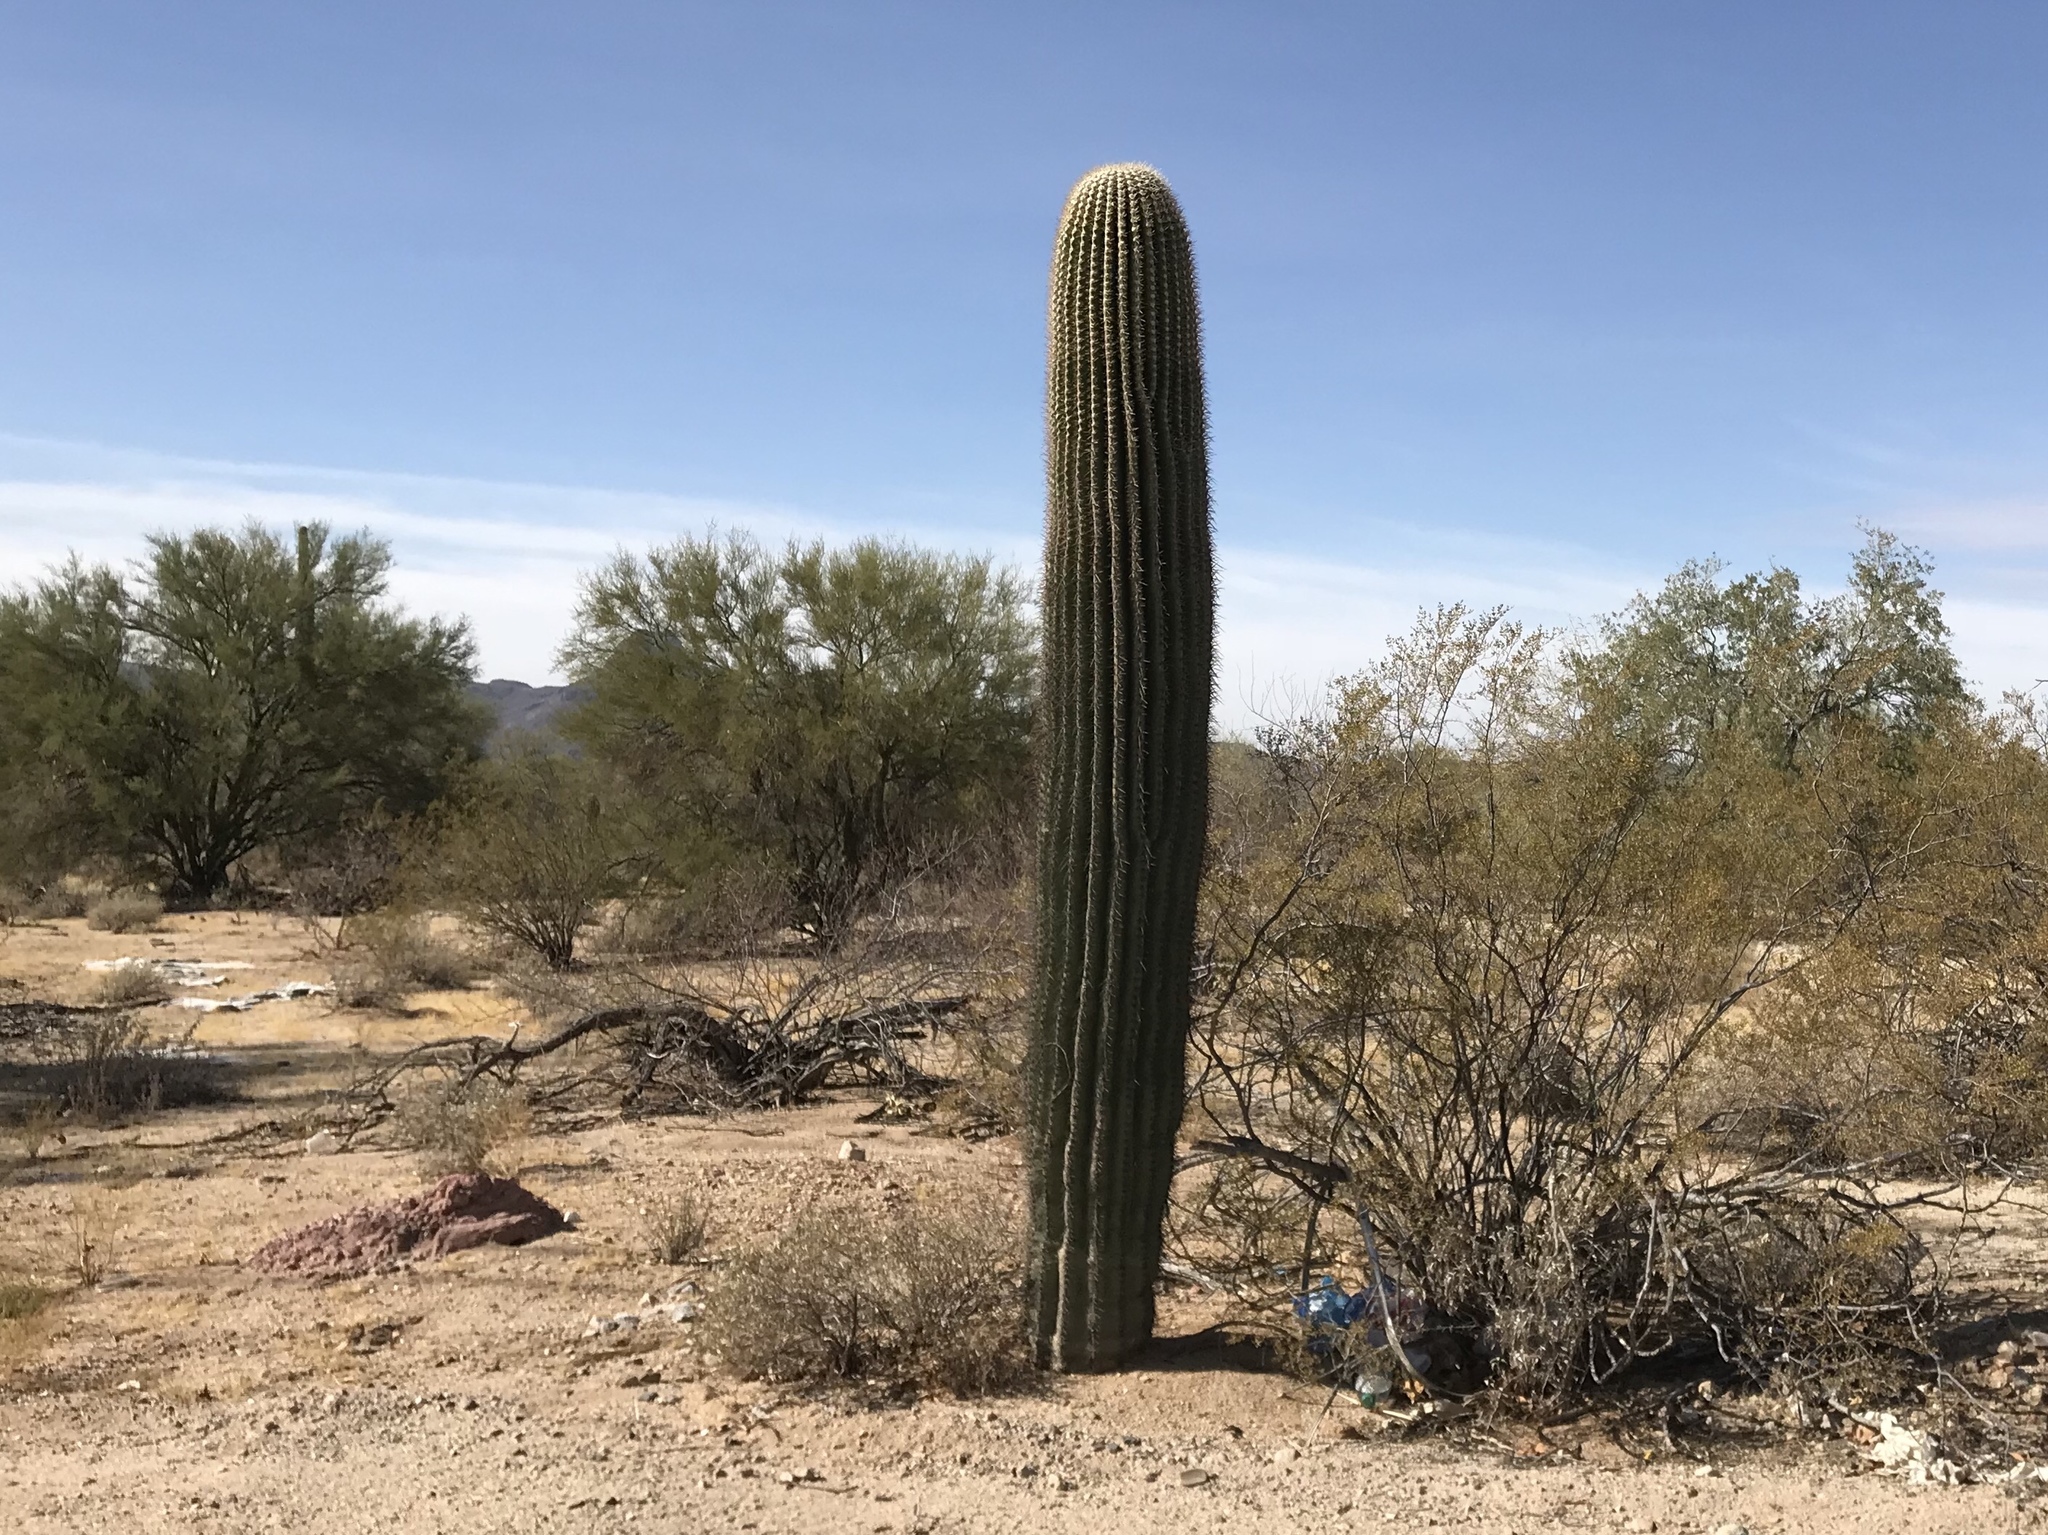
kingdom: Plantae
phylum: Tracheophyta
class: Magnoliopsida
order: Caryophyllales
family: Cactaceae
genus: Carnegiea
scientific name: Carnegiea gigantea
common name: Saguaro
